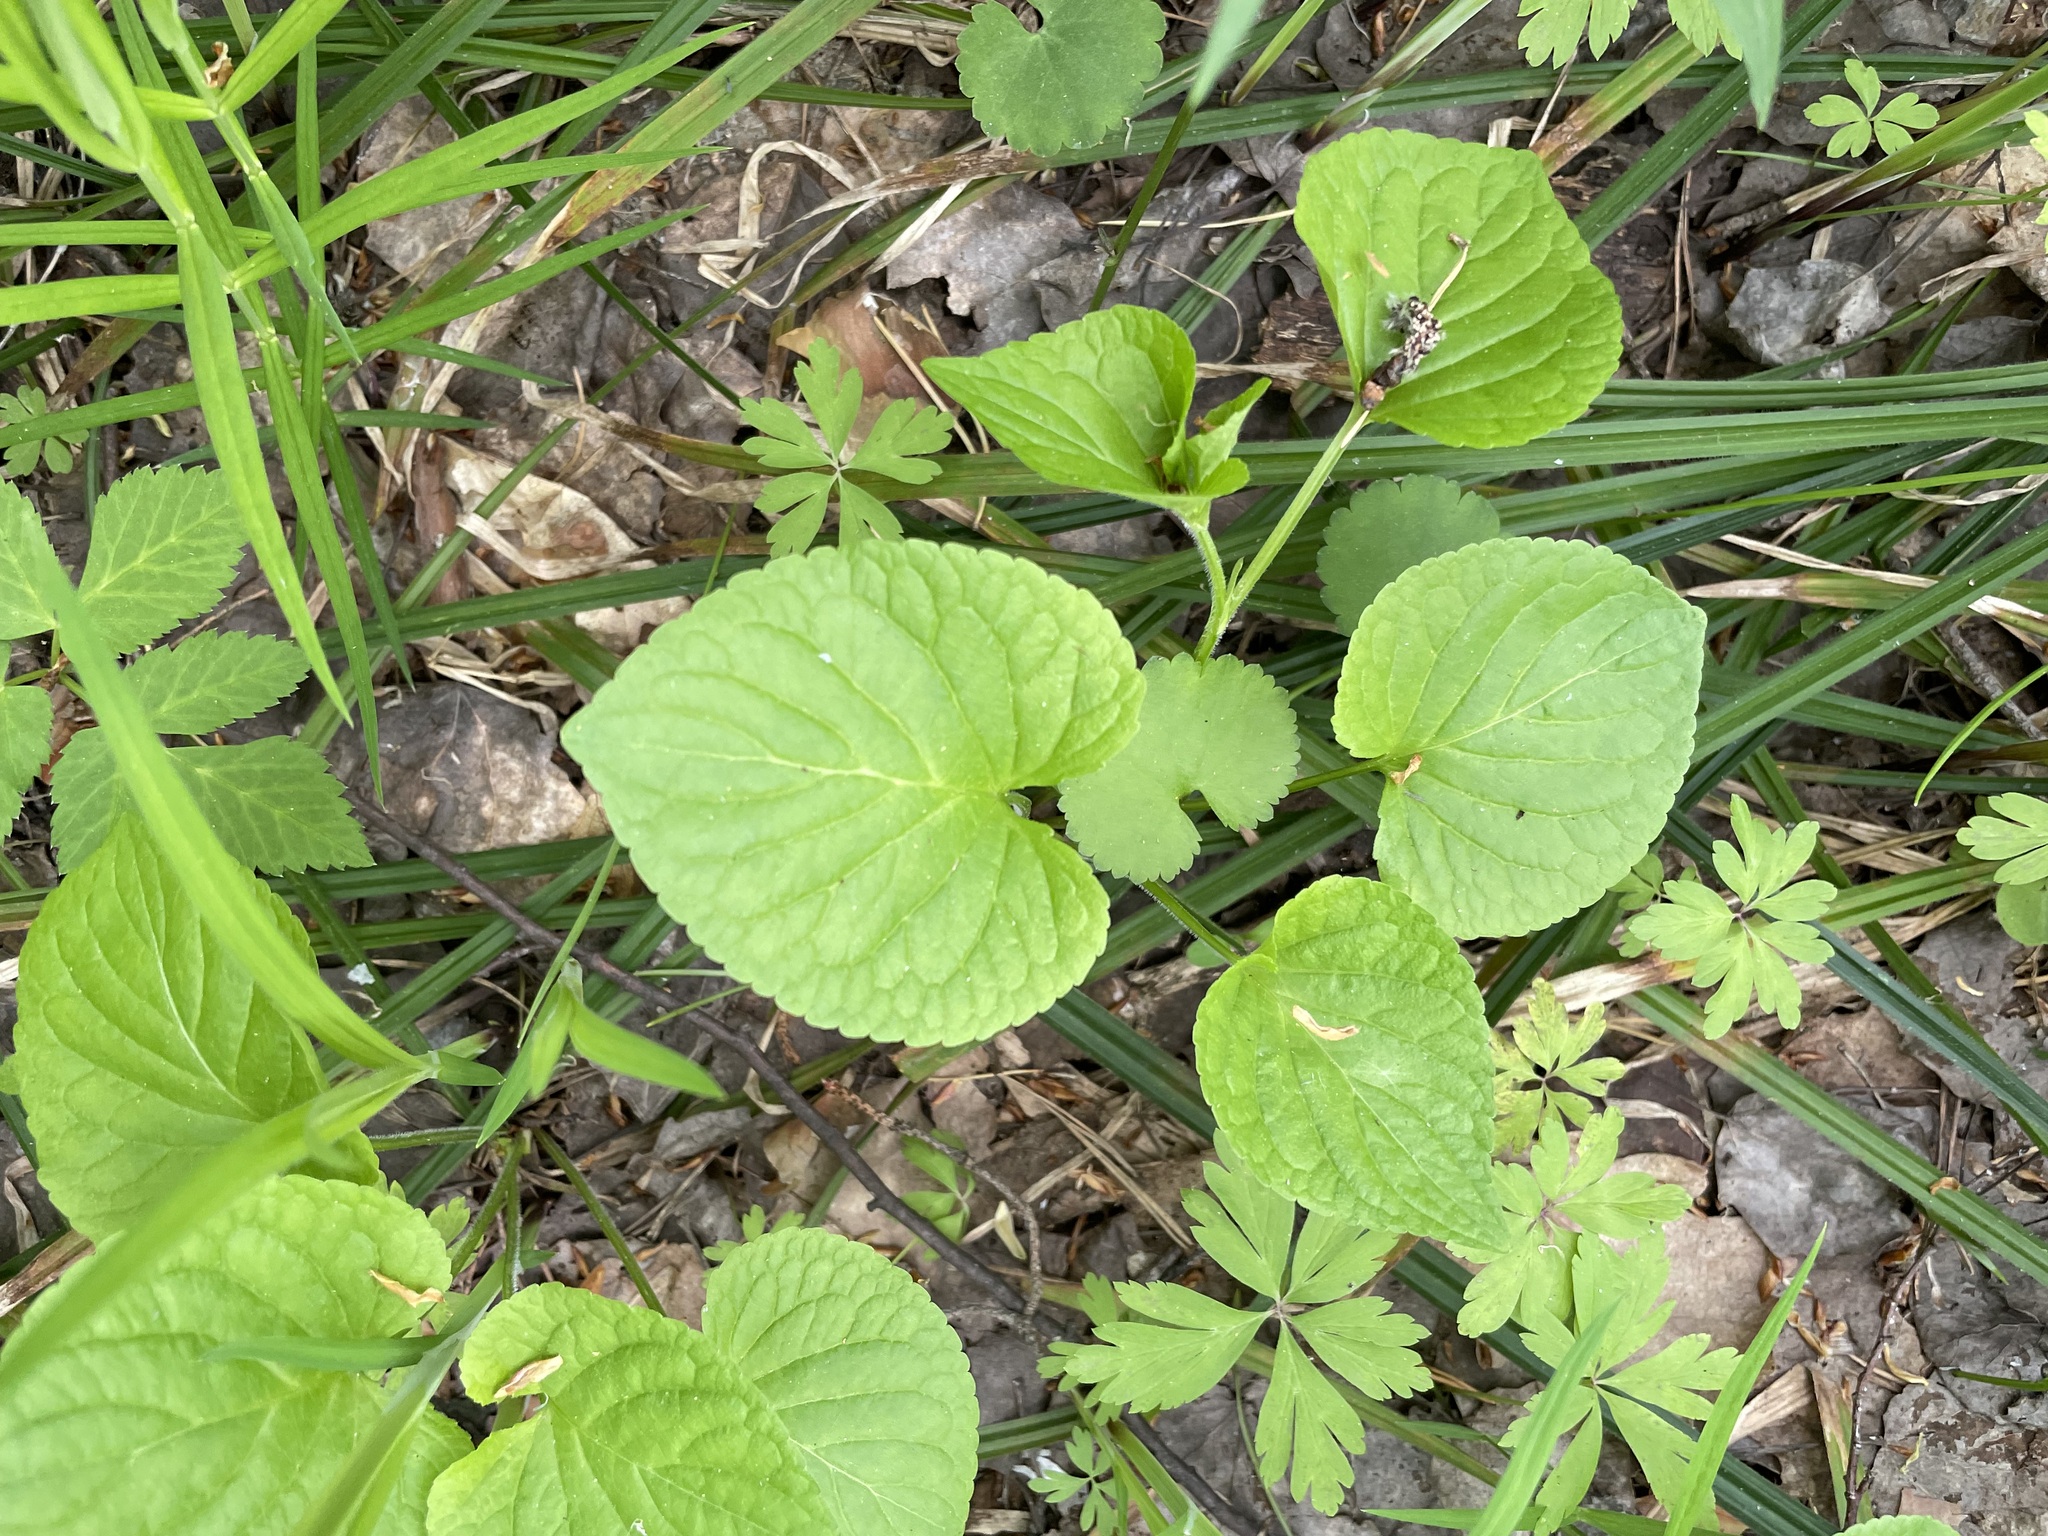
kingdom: Plantae
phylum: Tracheophyta
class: Magnoliopsida
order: Malpighiales
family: Violaceae
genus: Viola
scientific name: Viola mirabilis
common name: Wonder violet
